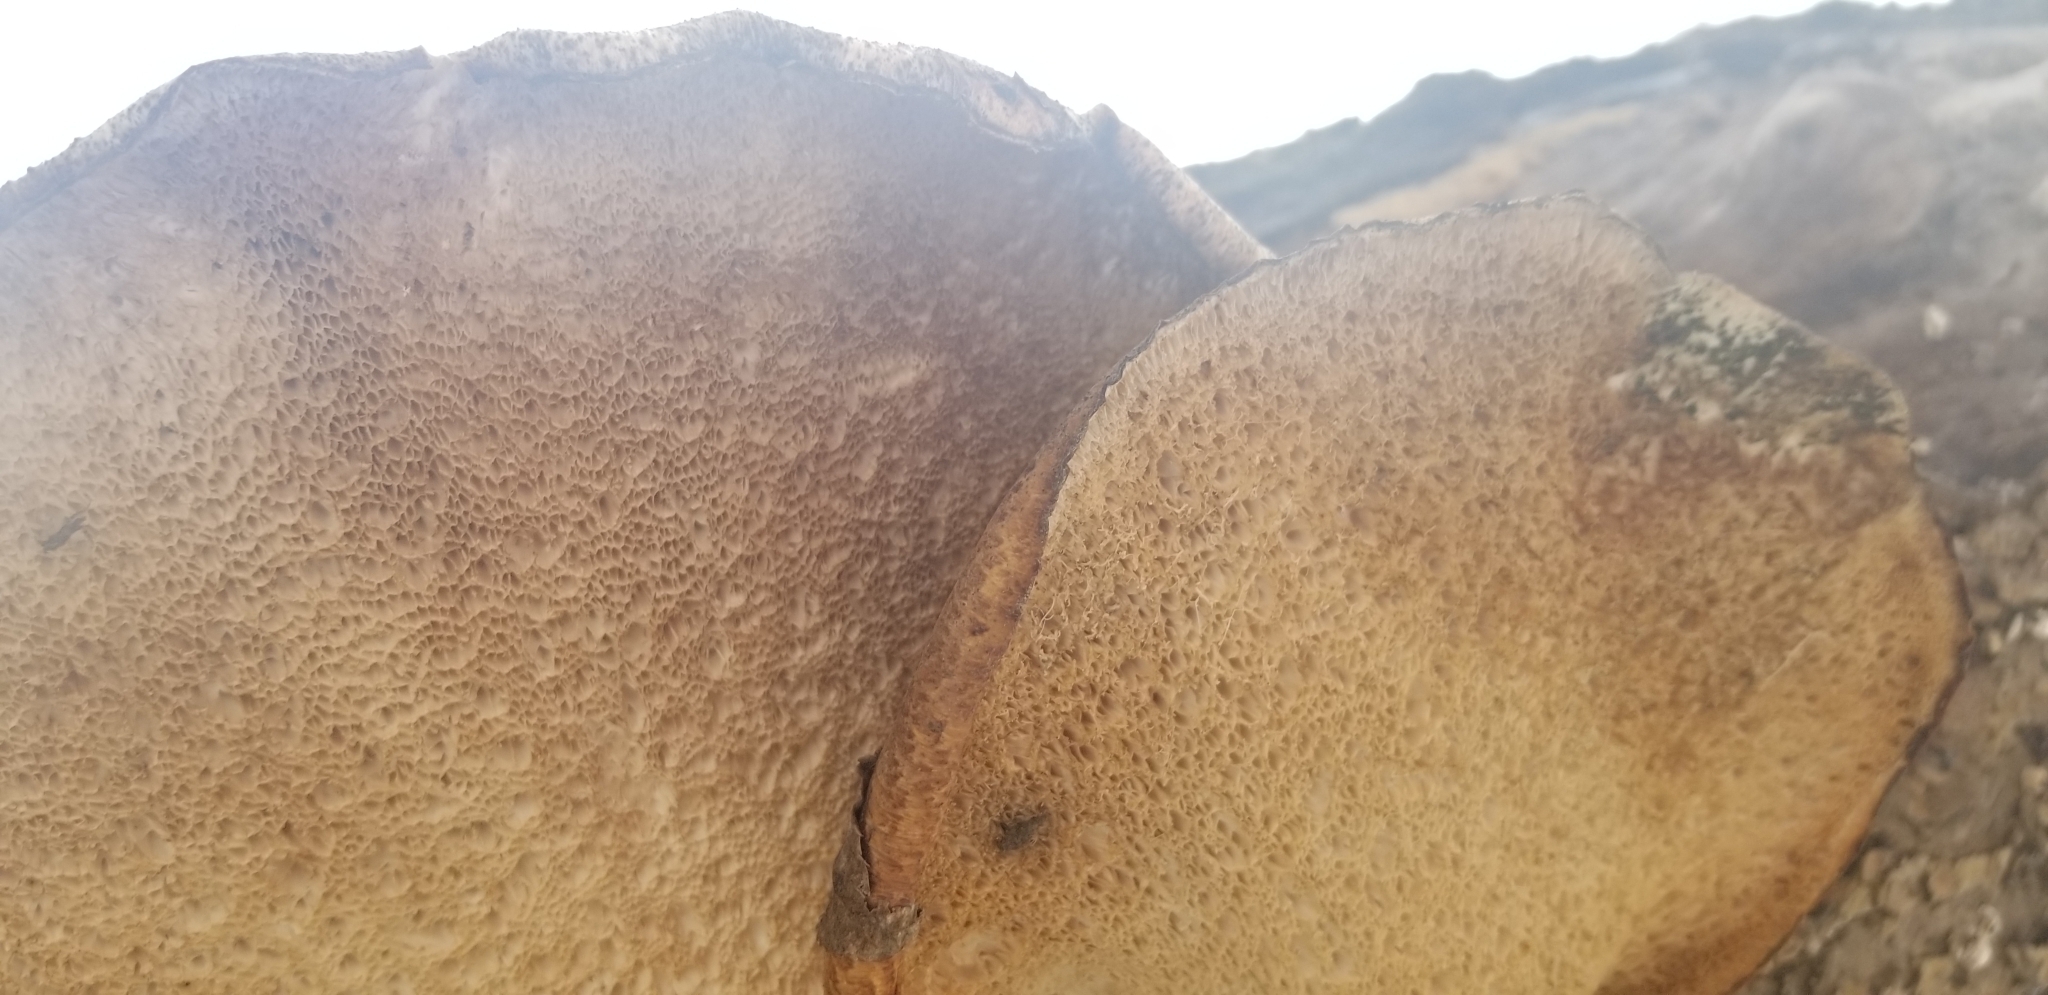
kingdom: Fungi
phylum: Basidiomycota
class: Agaricomycetes
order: Polyporales
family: Polyporaceae
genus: Cerioporus
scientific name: Cerioporus squamosus
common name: Dryad's saddle
